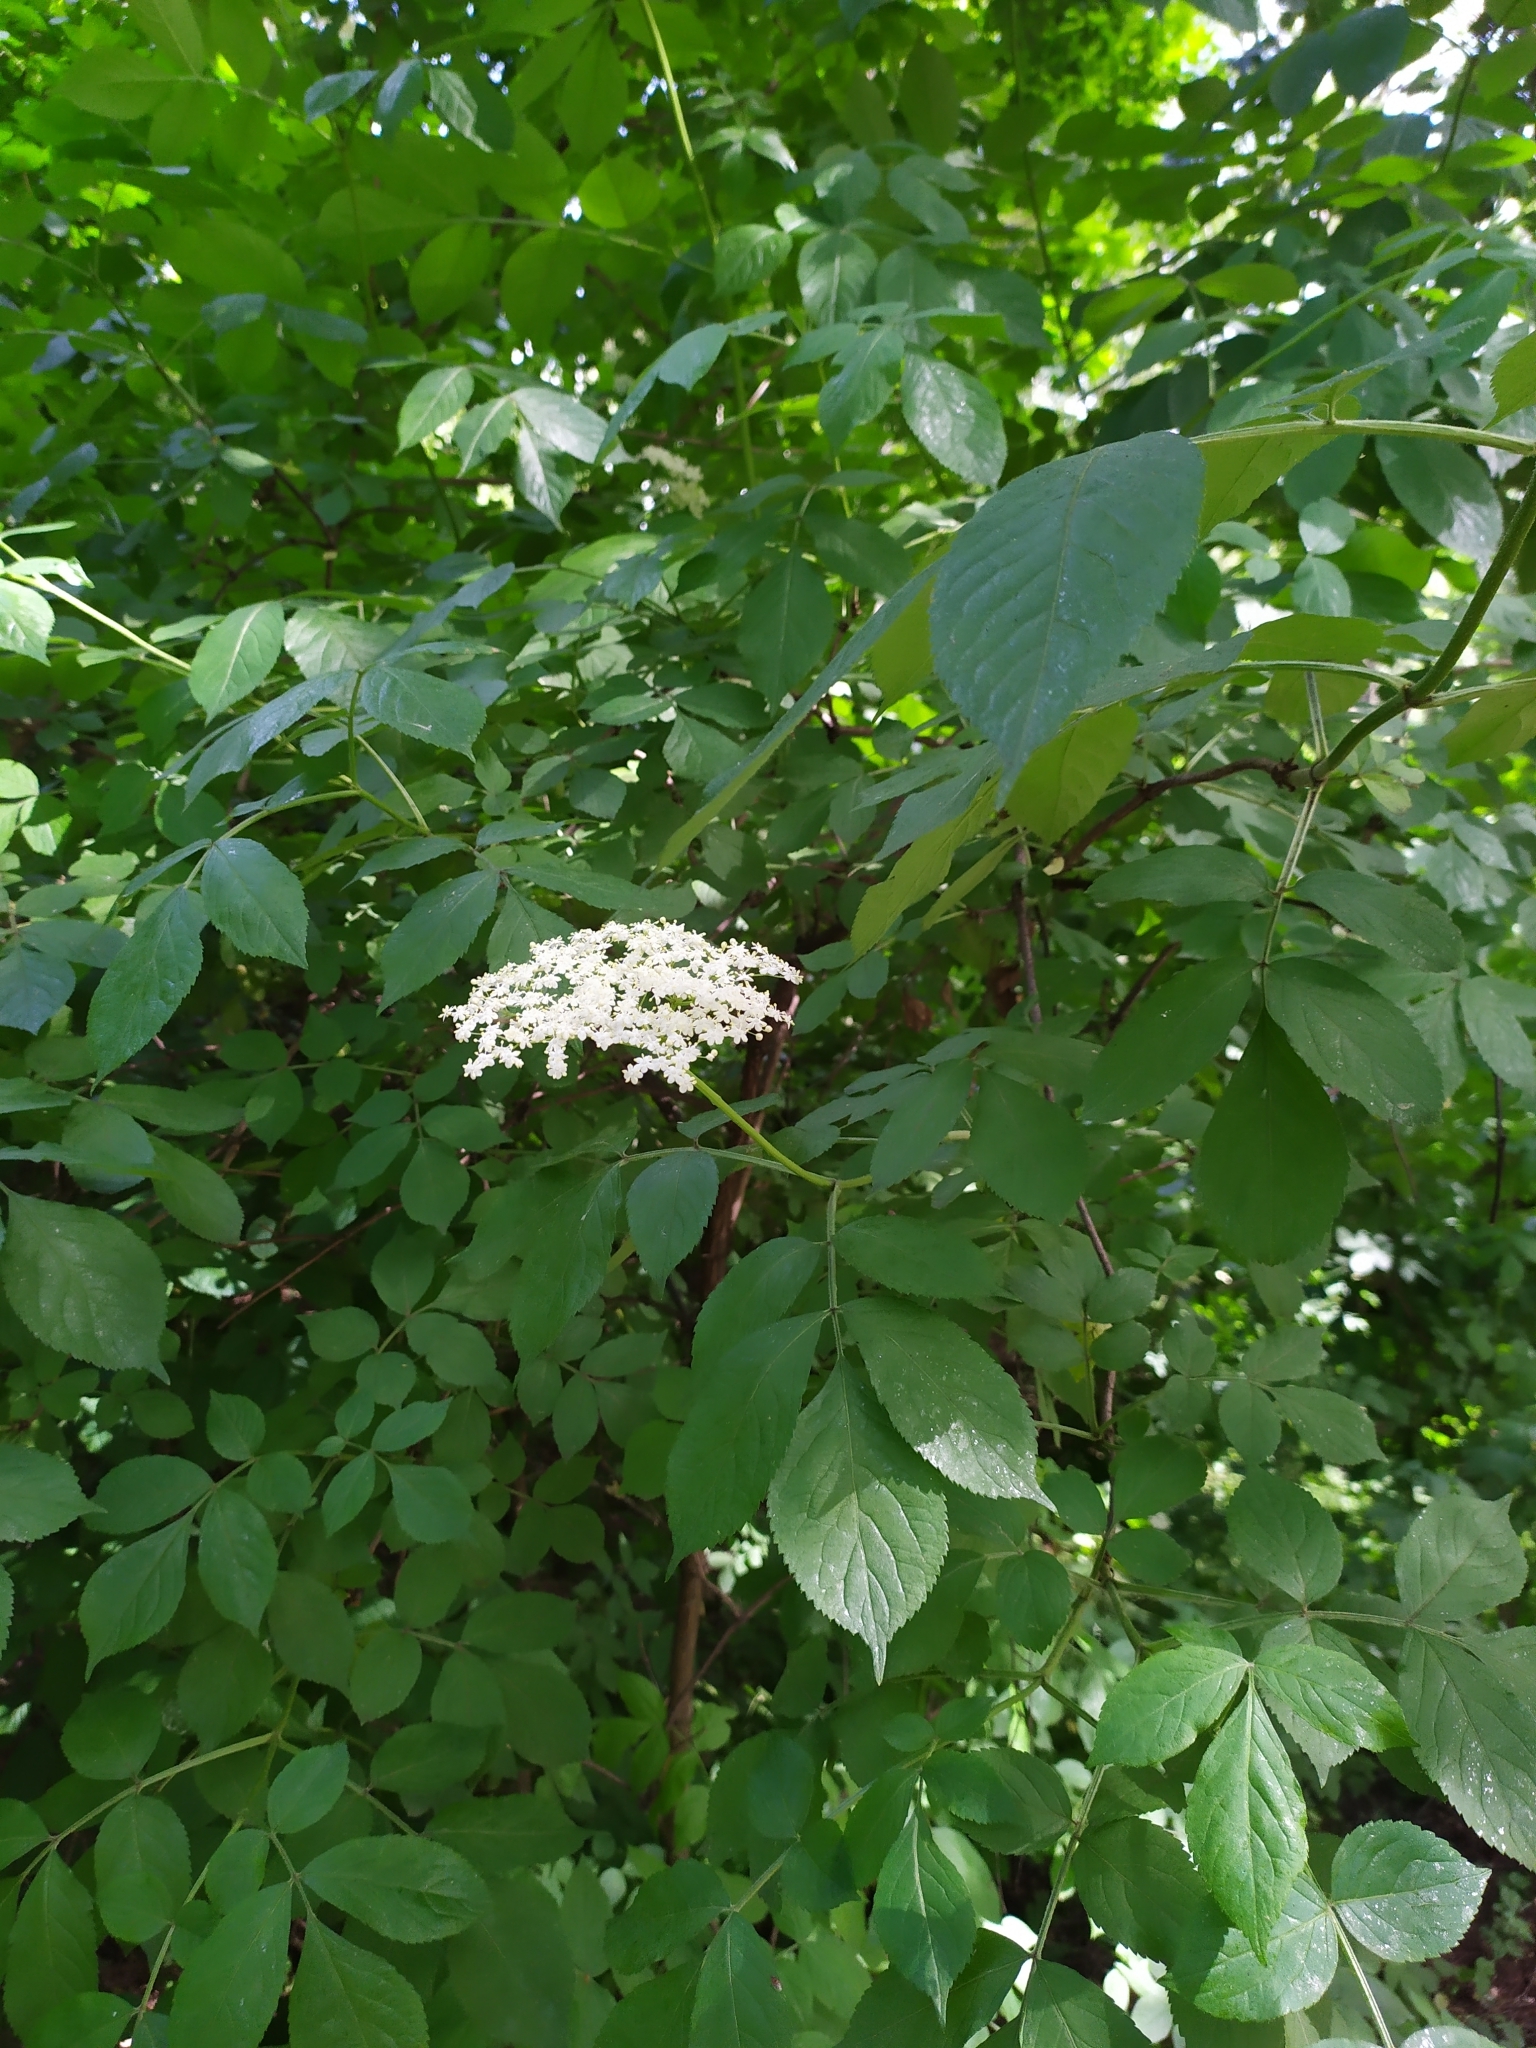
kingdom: Plantae
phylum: Tracheophyta
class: Magnoliopsida
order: Dipsacales
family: Viburnaceae
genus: Sambucus
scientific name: Sambucus nigra
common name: Elder
